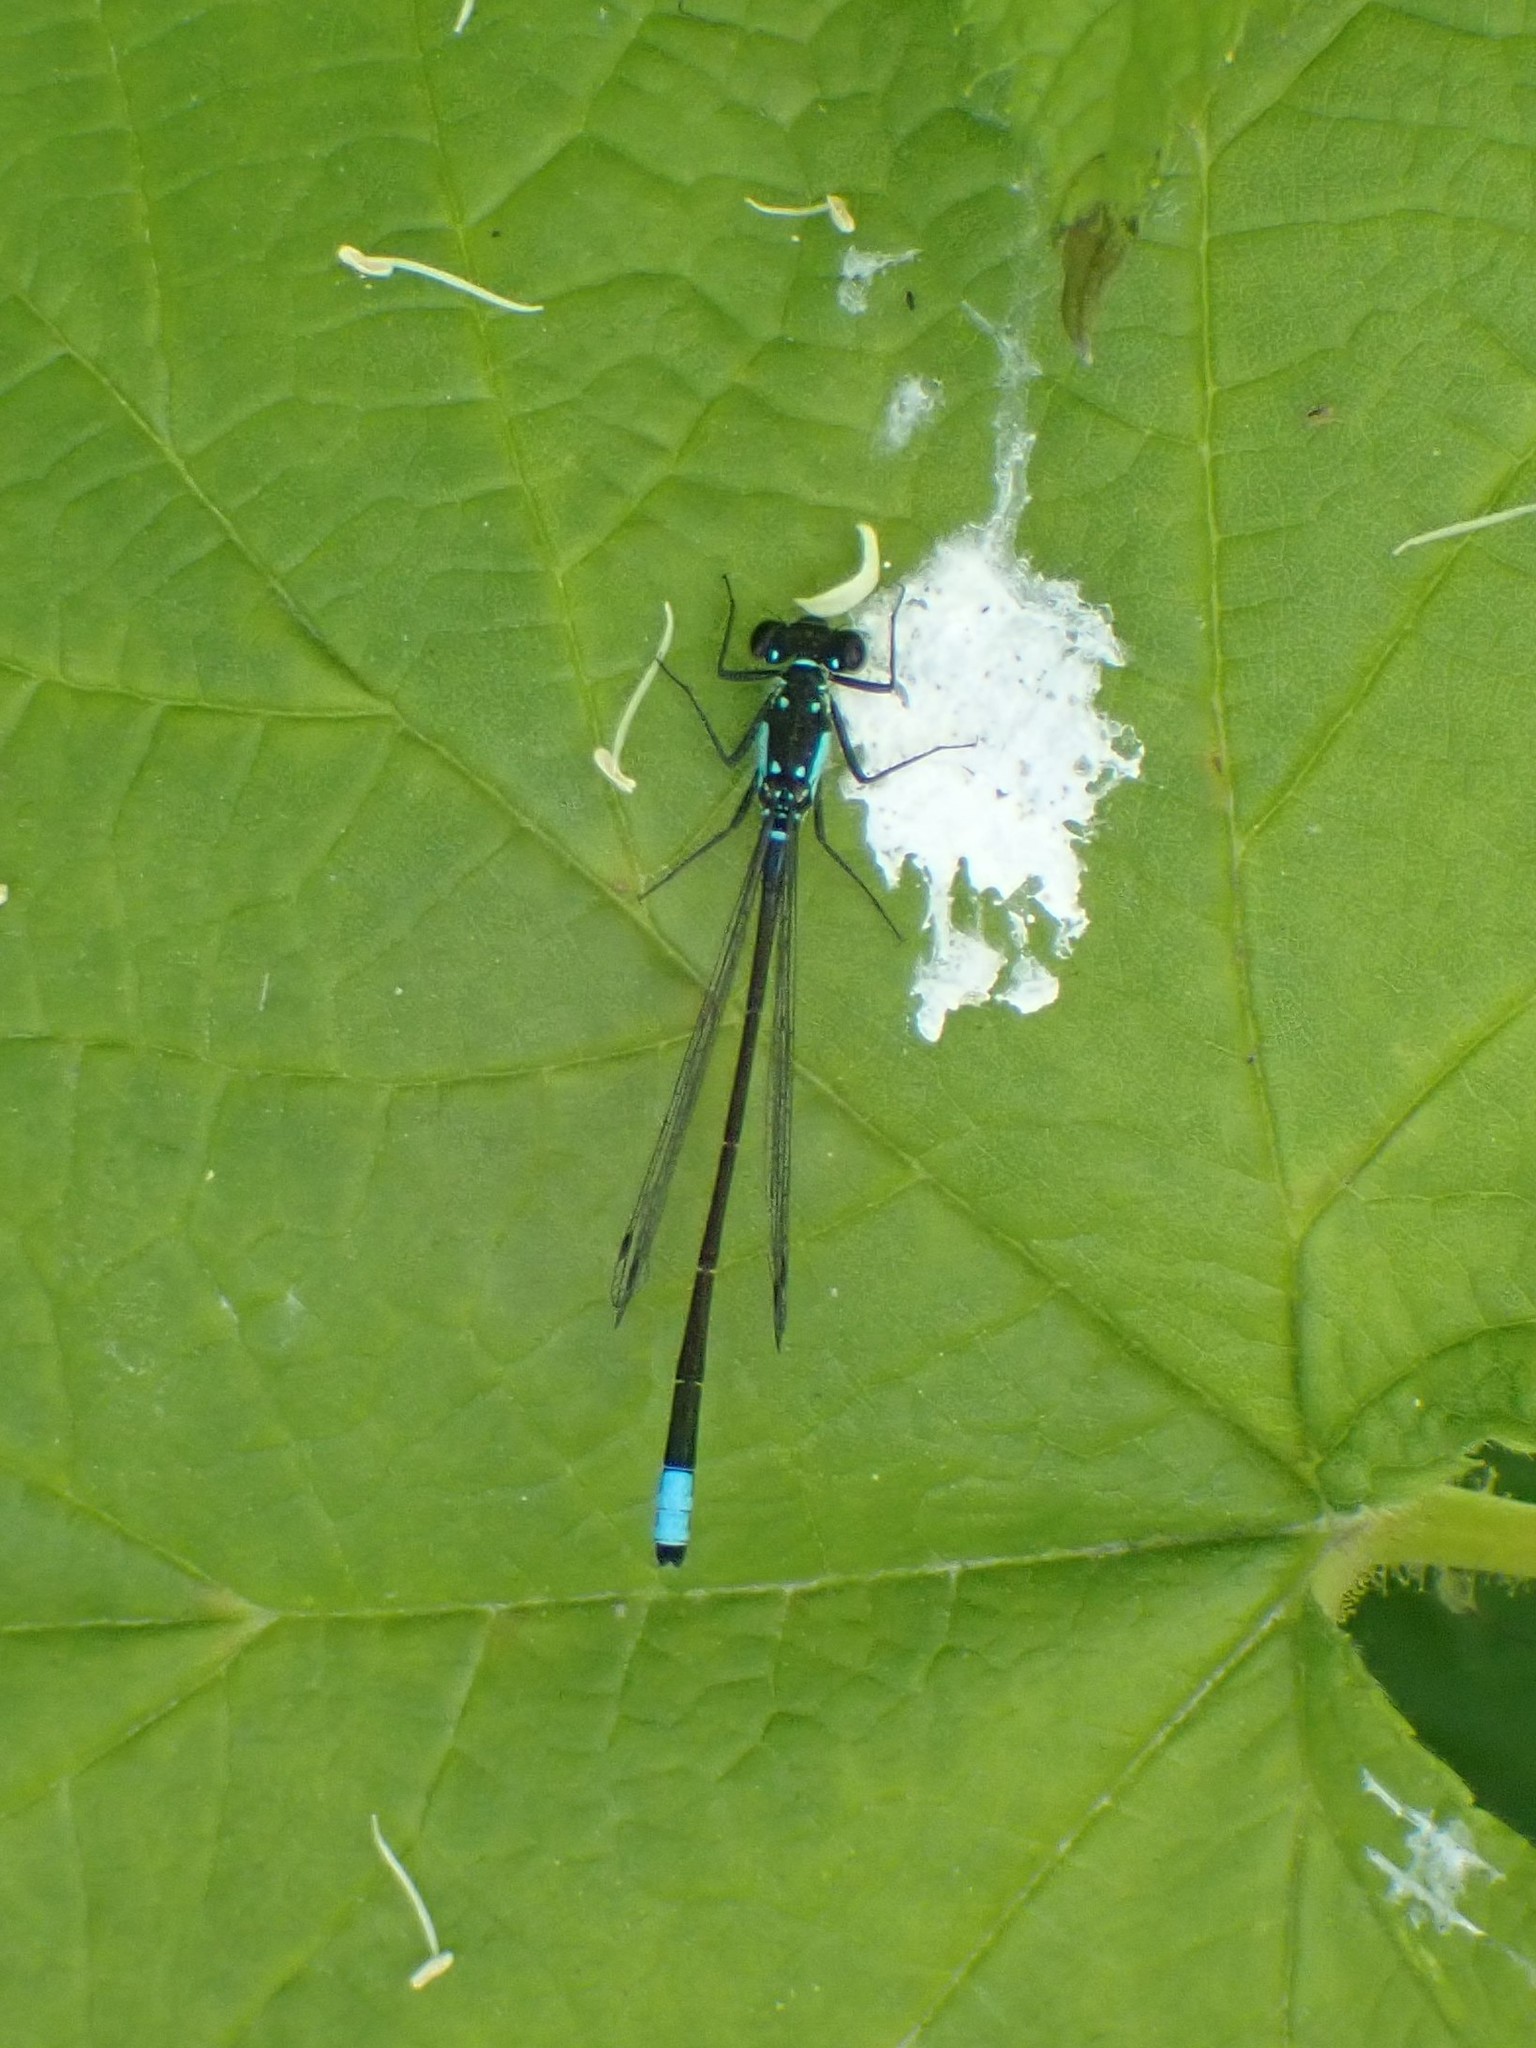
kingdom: Animalia
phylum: Arthropoda
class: Insecta
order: Odonata
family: Coenagrionidae
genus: Ischnura
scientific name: Ischnura cervula
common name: Pacific forktail
